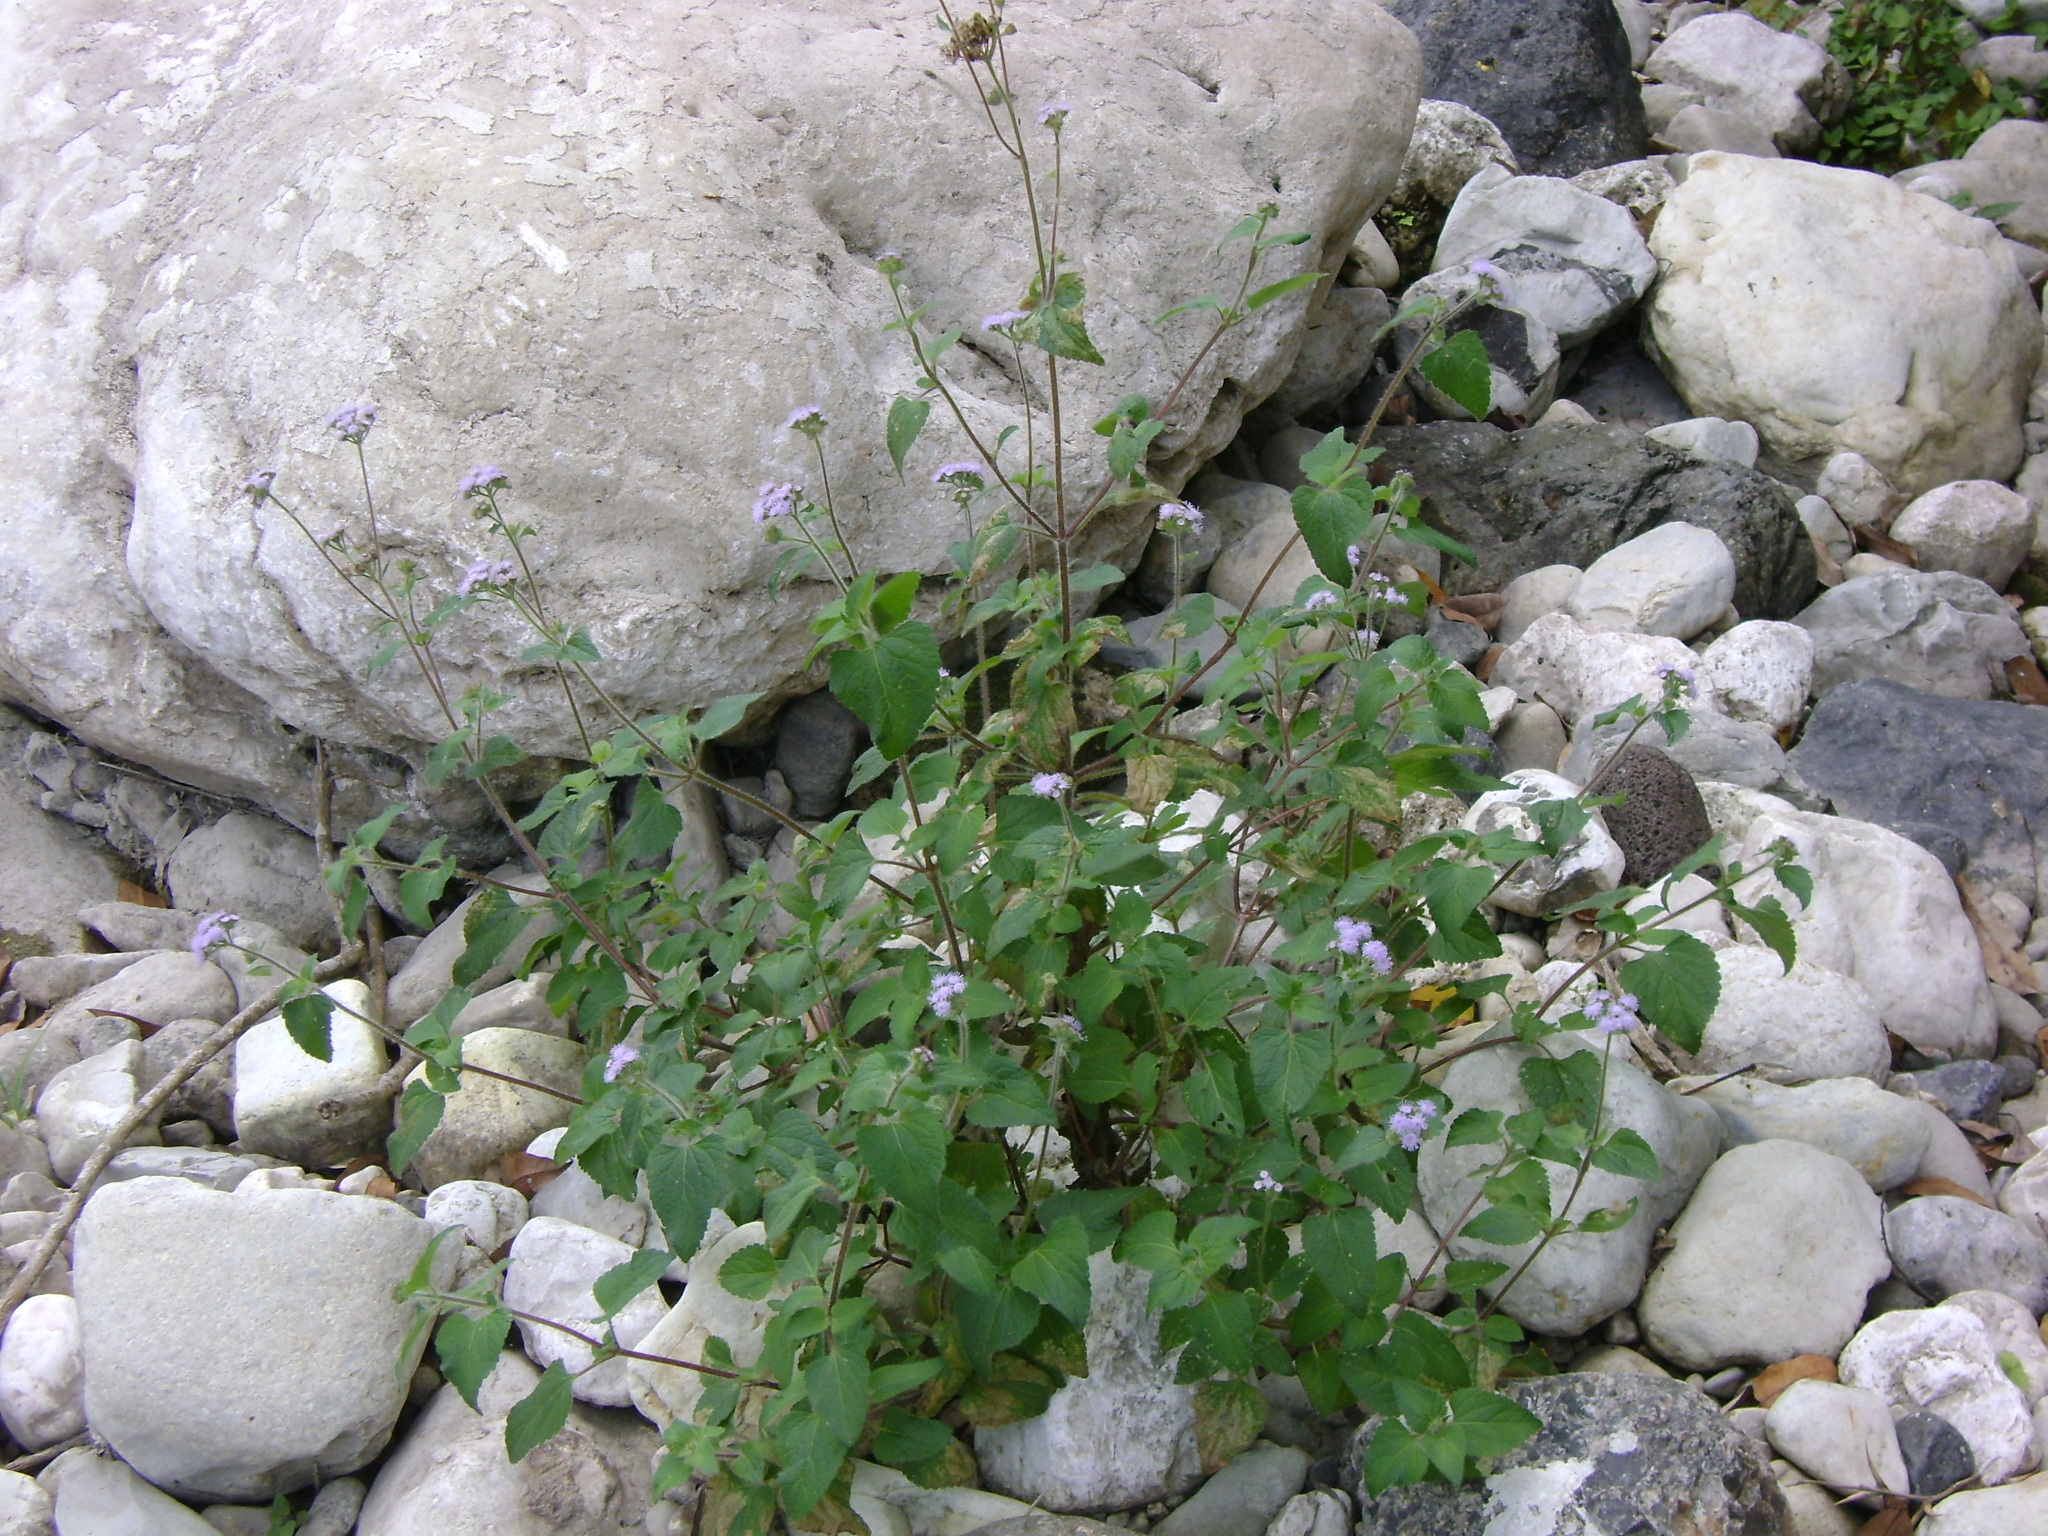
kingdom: Plantae
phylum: Tracheophyta
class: Magnoliopsida
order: Asterales
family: Asteraceae
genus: Ageratum
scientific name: Ageratum houstonianum
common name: Bluemink
